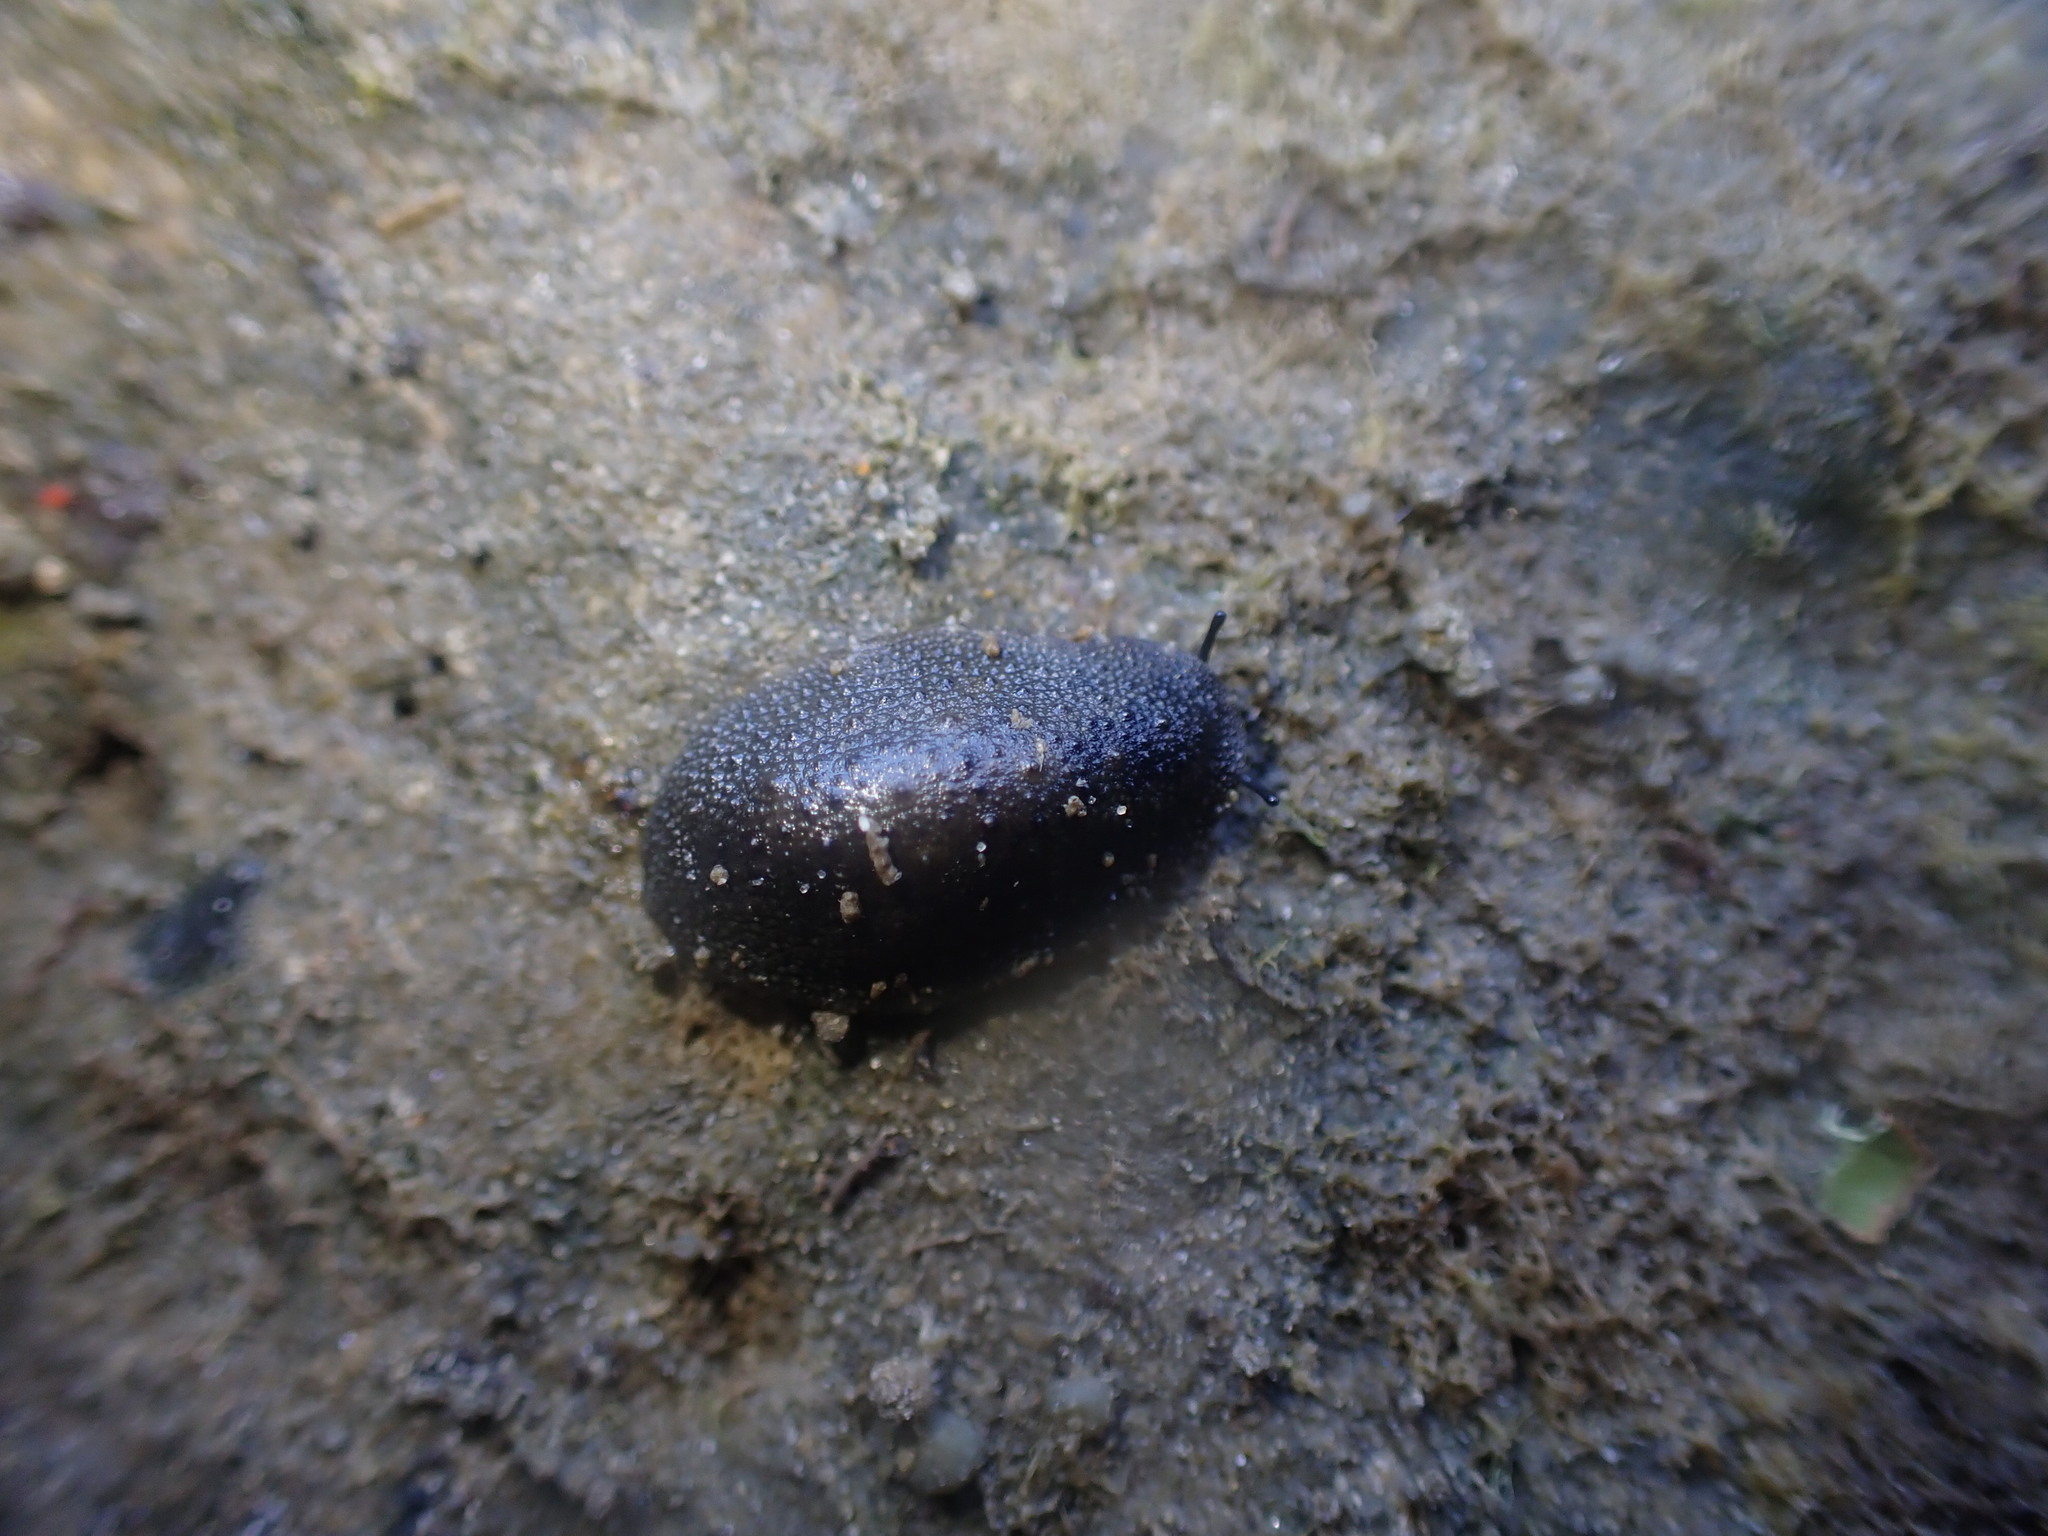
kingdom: Animalia
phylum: Mollusca
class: Gastropoda
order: Systellommatophora
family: Onchidiidae
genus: Onchidella
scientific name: Onchidella nigricans
